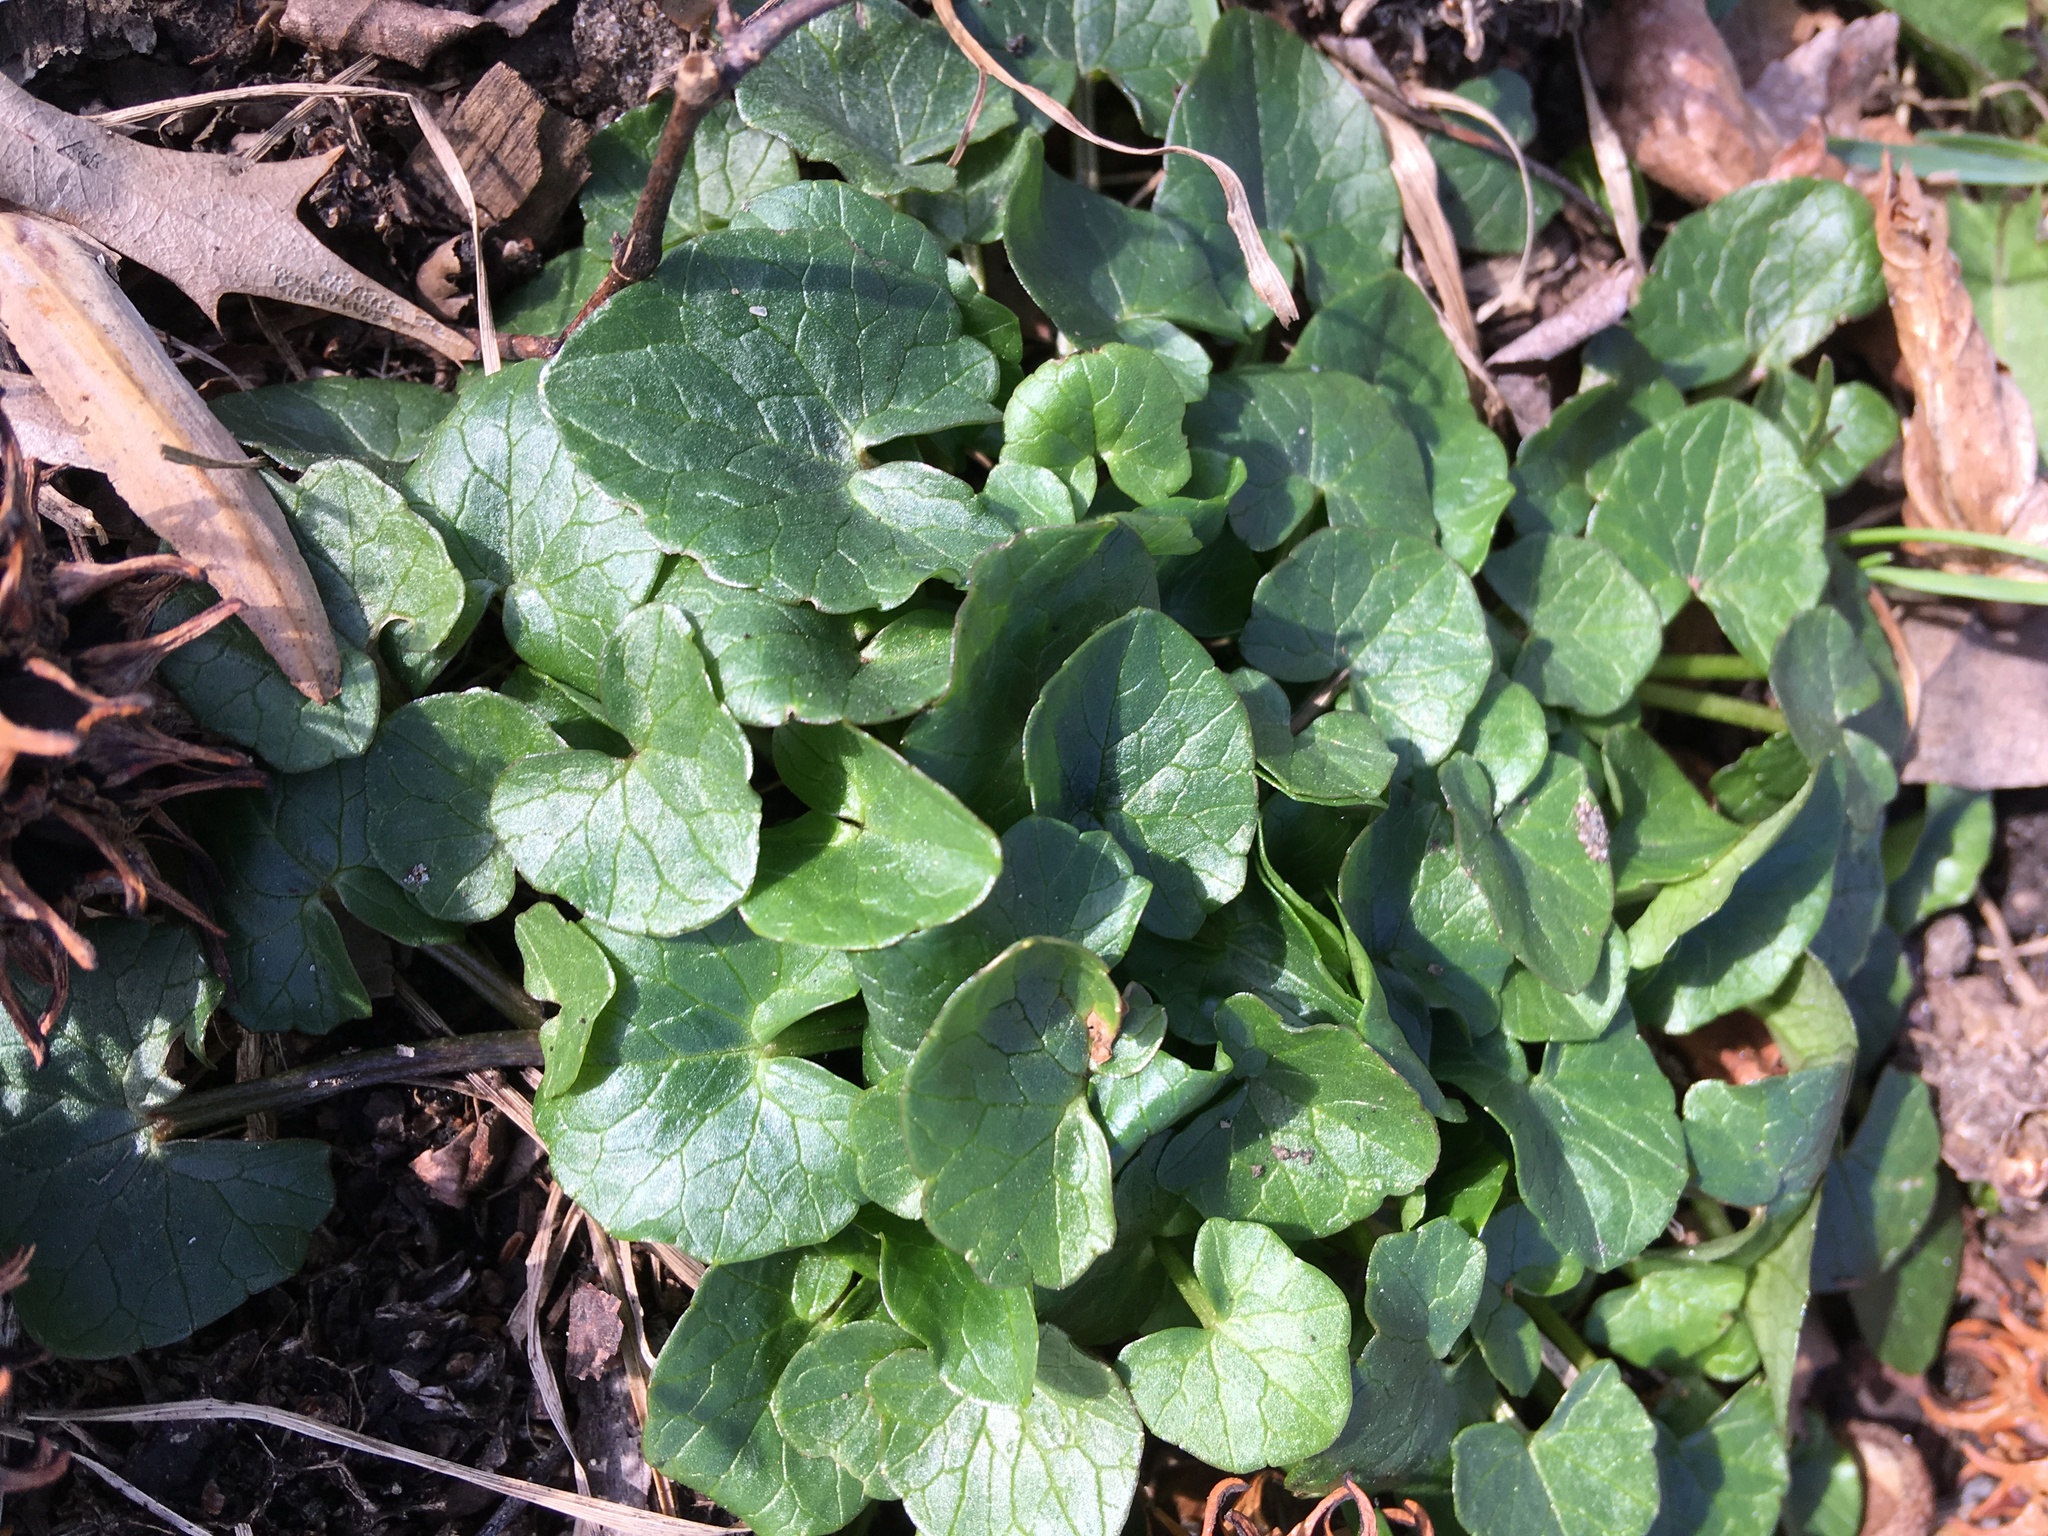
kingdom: Plantae
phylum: Tracheophyta
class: Magnoliopsida
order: Ranunculales
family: Ranunculaceae
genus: Ficaria
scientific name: Ficaria verna
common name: Lesser celandine
